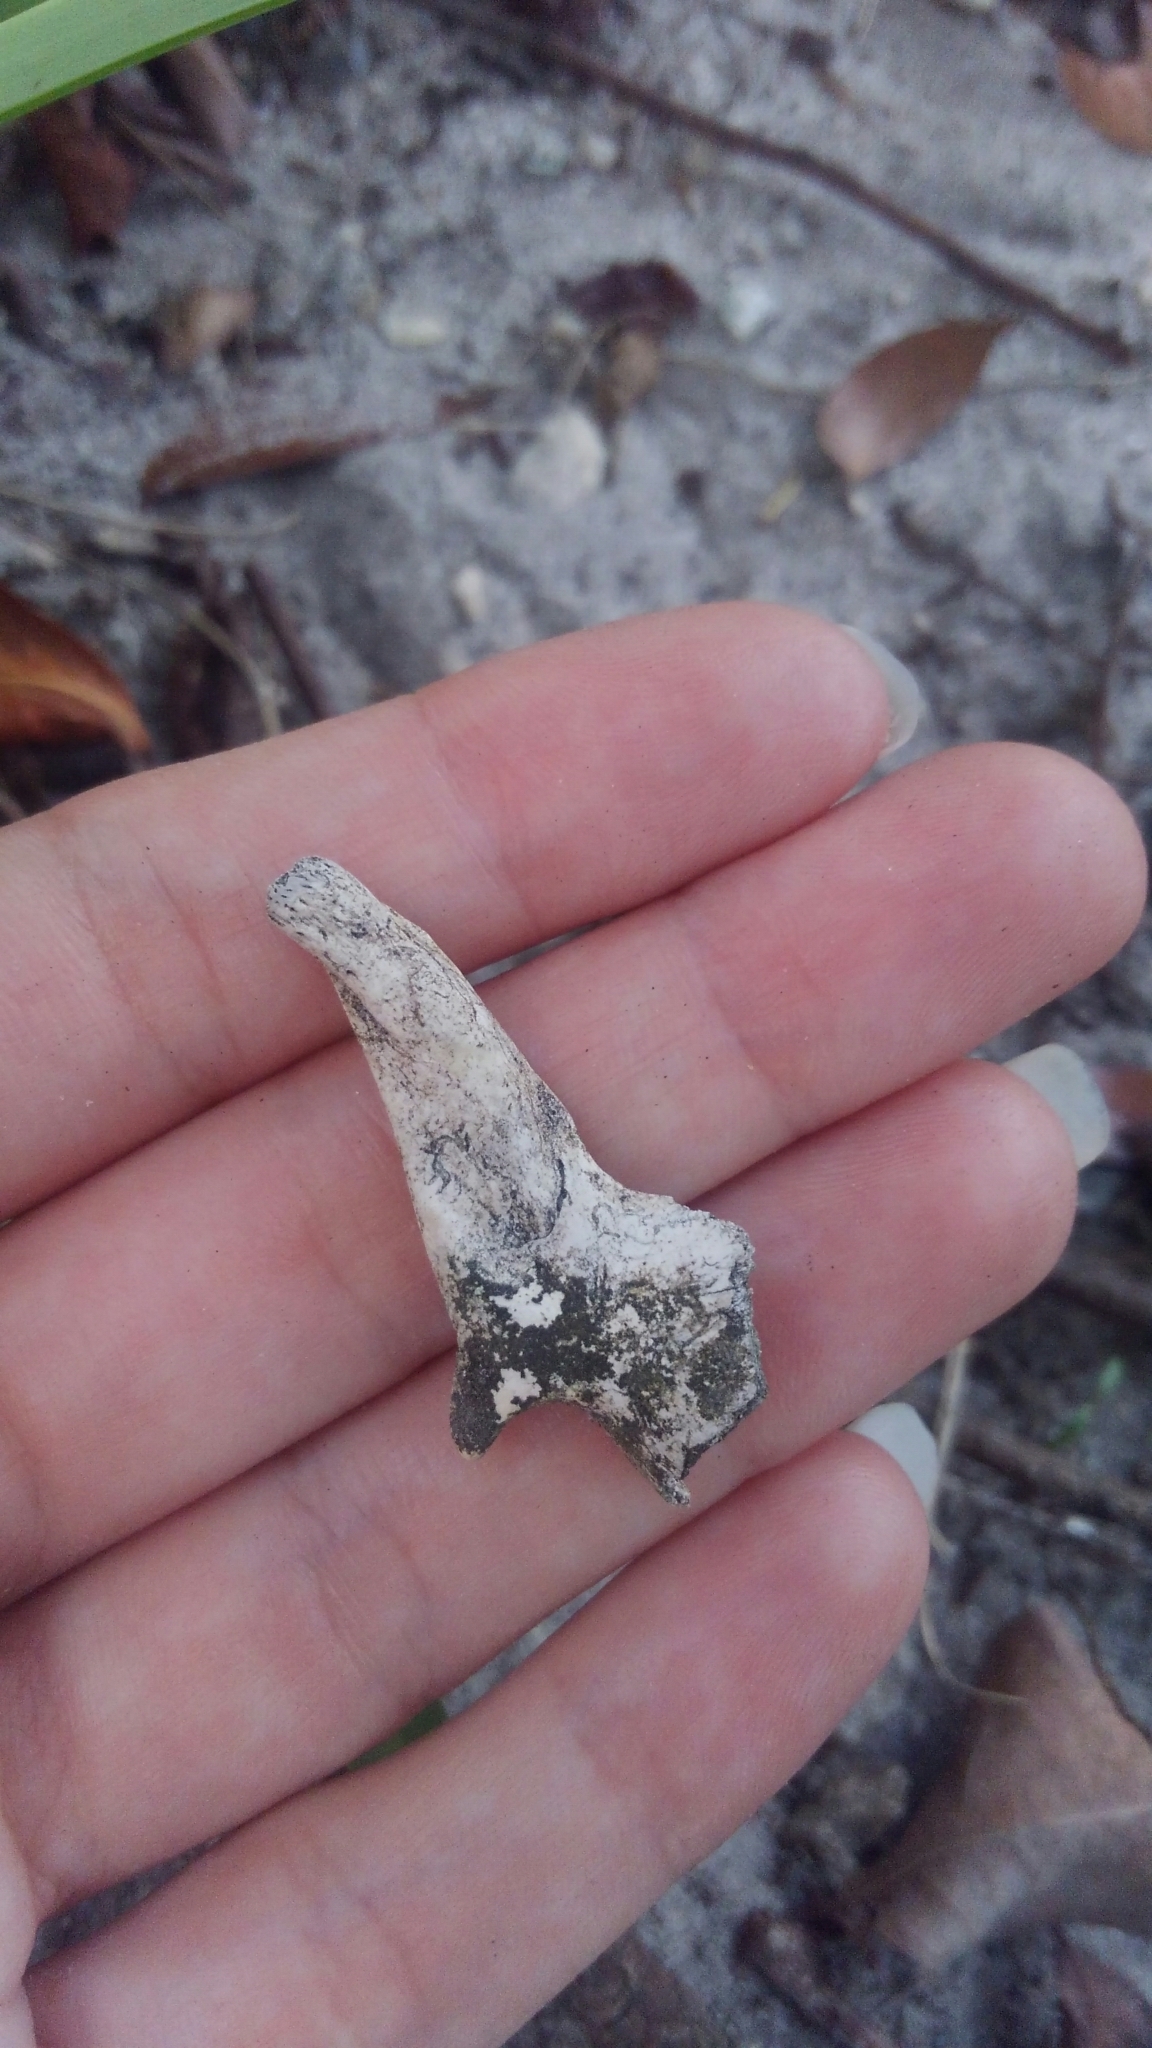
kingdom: Animalia
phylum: Chordata
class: Squamata
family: Iguanidae
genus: Iguana
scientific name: Iguana iguana
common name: Green iguana
